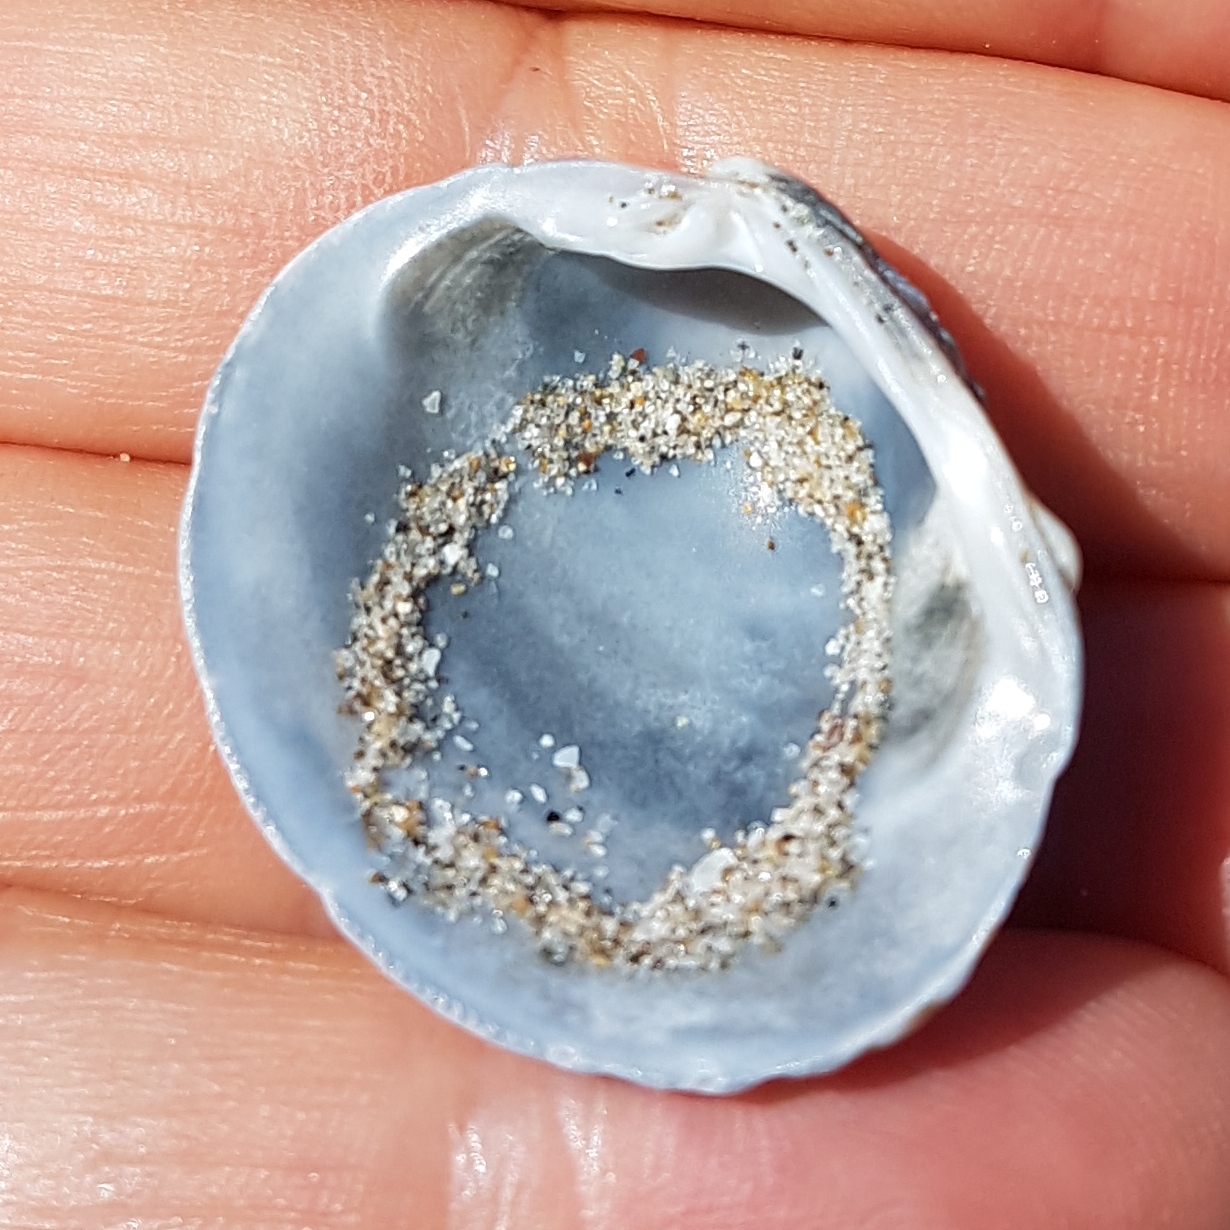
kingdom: Animalia
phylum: Mollusca
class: Bivalvia
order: Venerida
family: Veneridae
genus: Venus
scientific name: Venus verrucosa
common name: Warty venus
